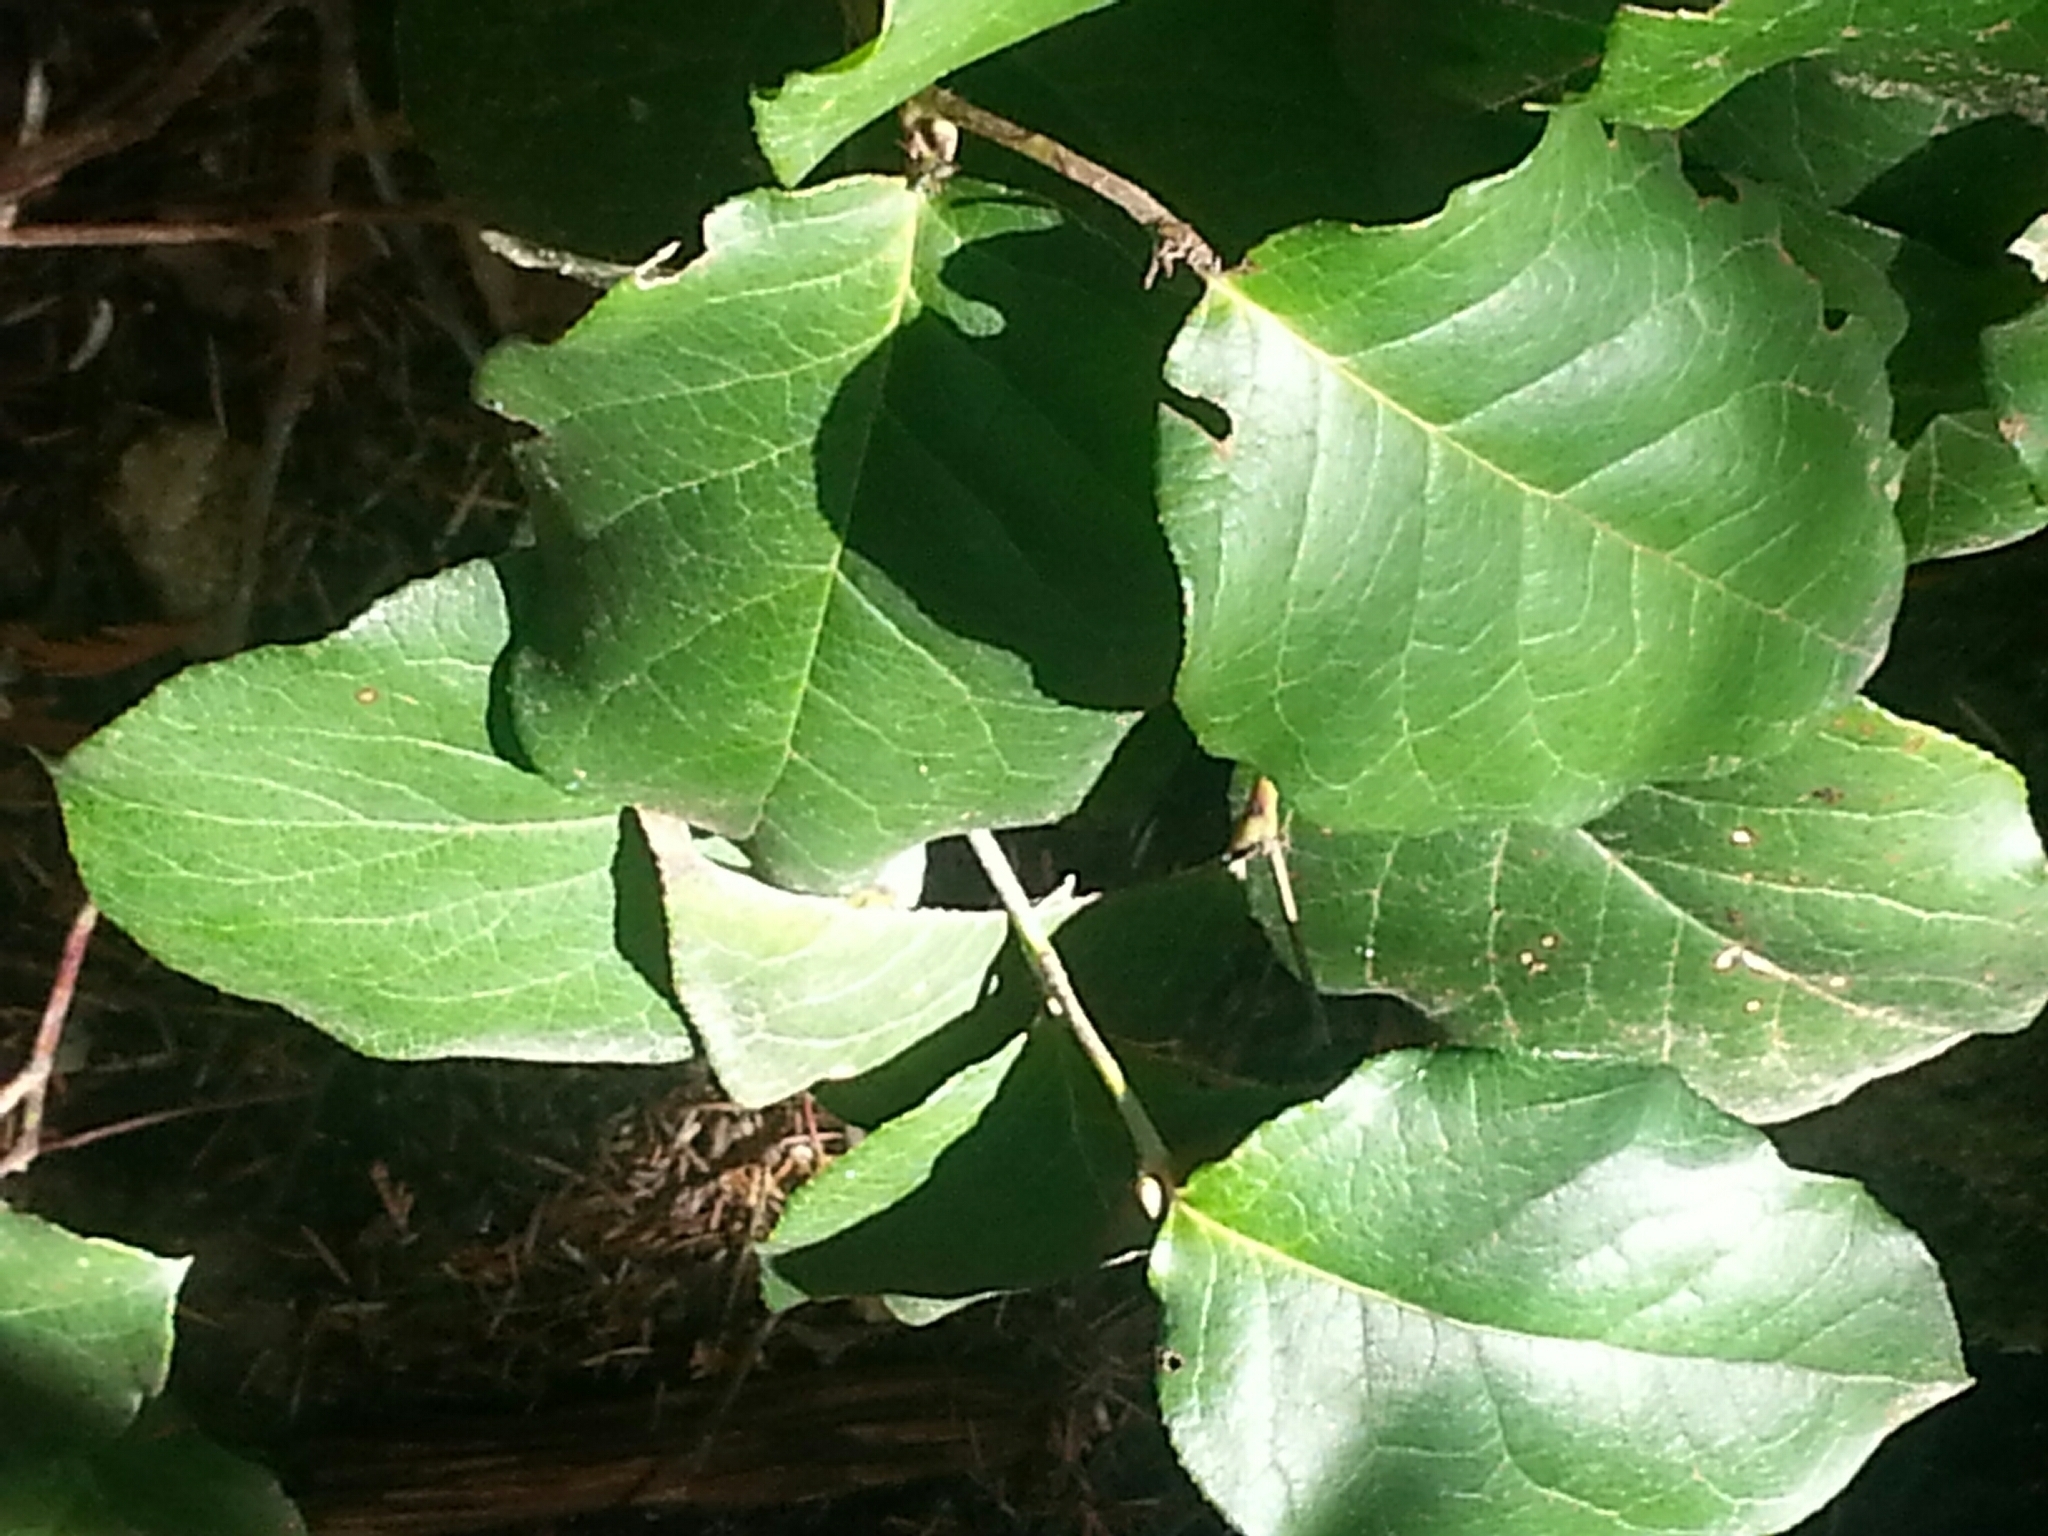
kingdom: Plantae
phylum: Tracheophyta
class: Magnoliopsida
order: Ericales
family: Ericaceae
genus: Gaultheria
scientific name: Gaultheria shallon
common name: Shallon
